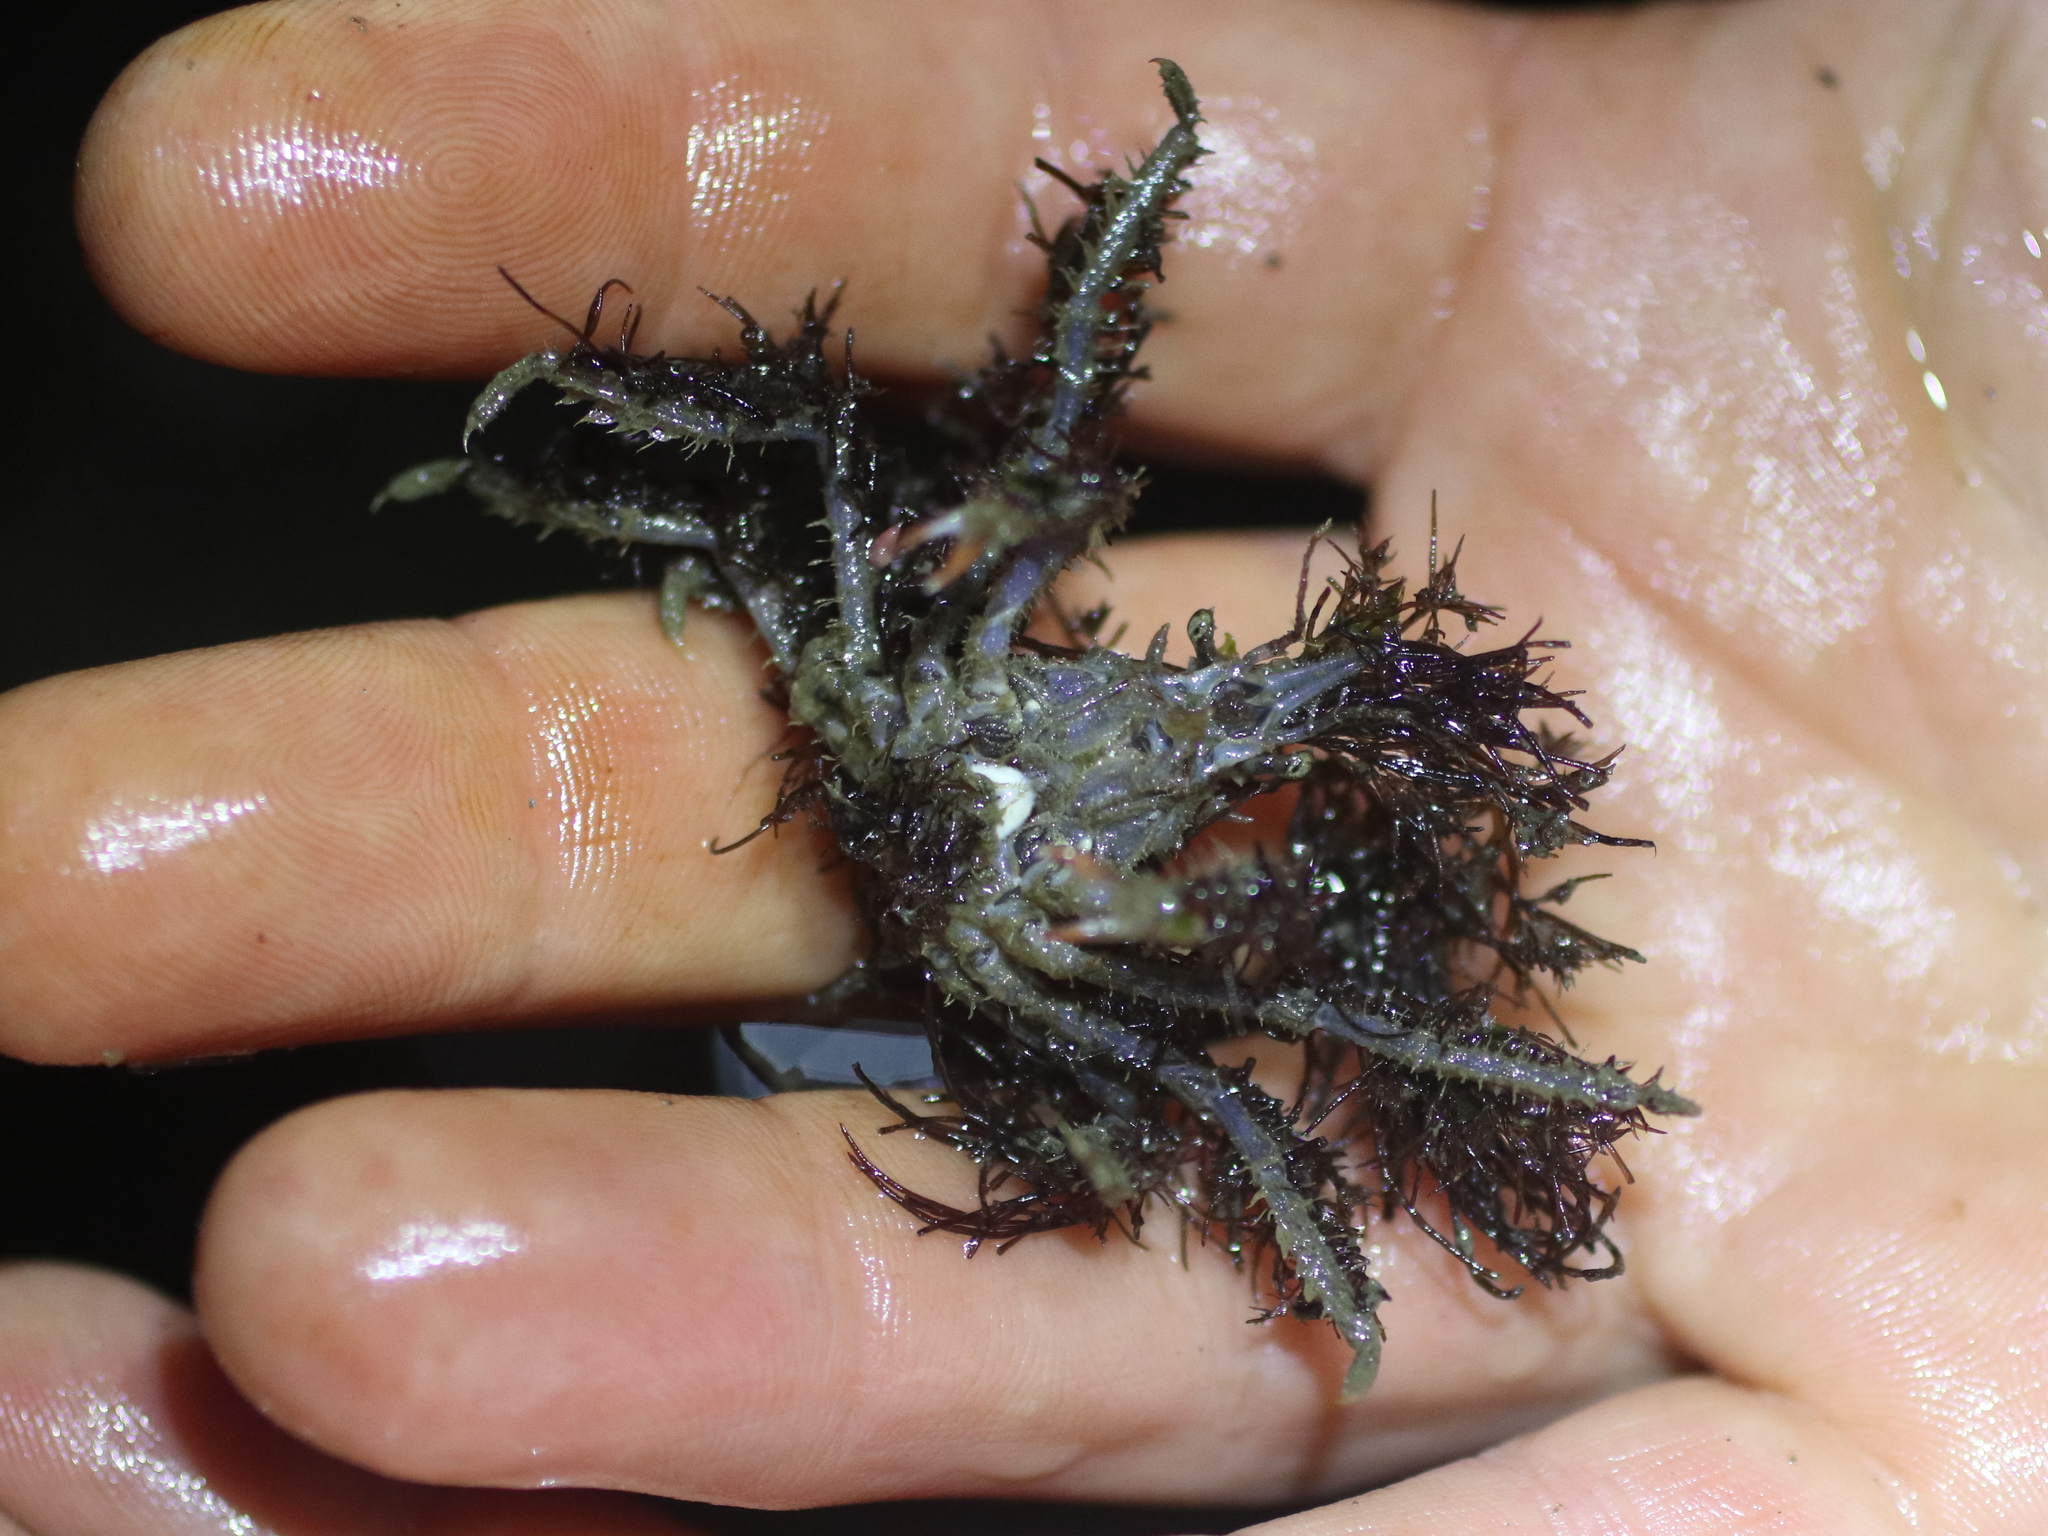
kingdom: Animalia
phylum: Arthropoda
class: Malacostraca
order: Decapoda
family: Oregoniidae
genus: Oregonia
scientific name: Oregonia gracilis
